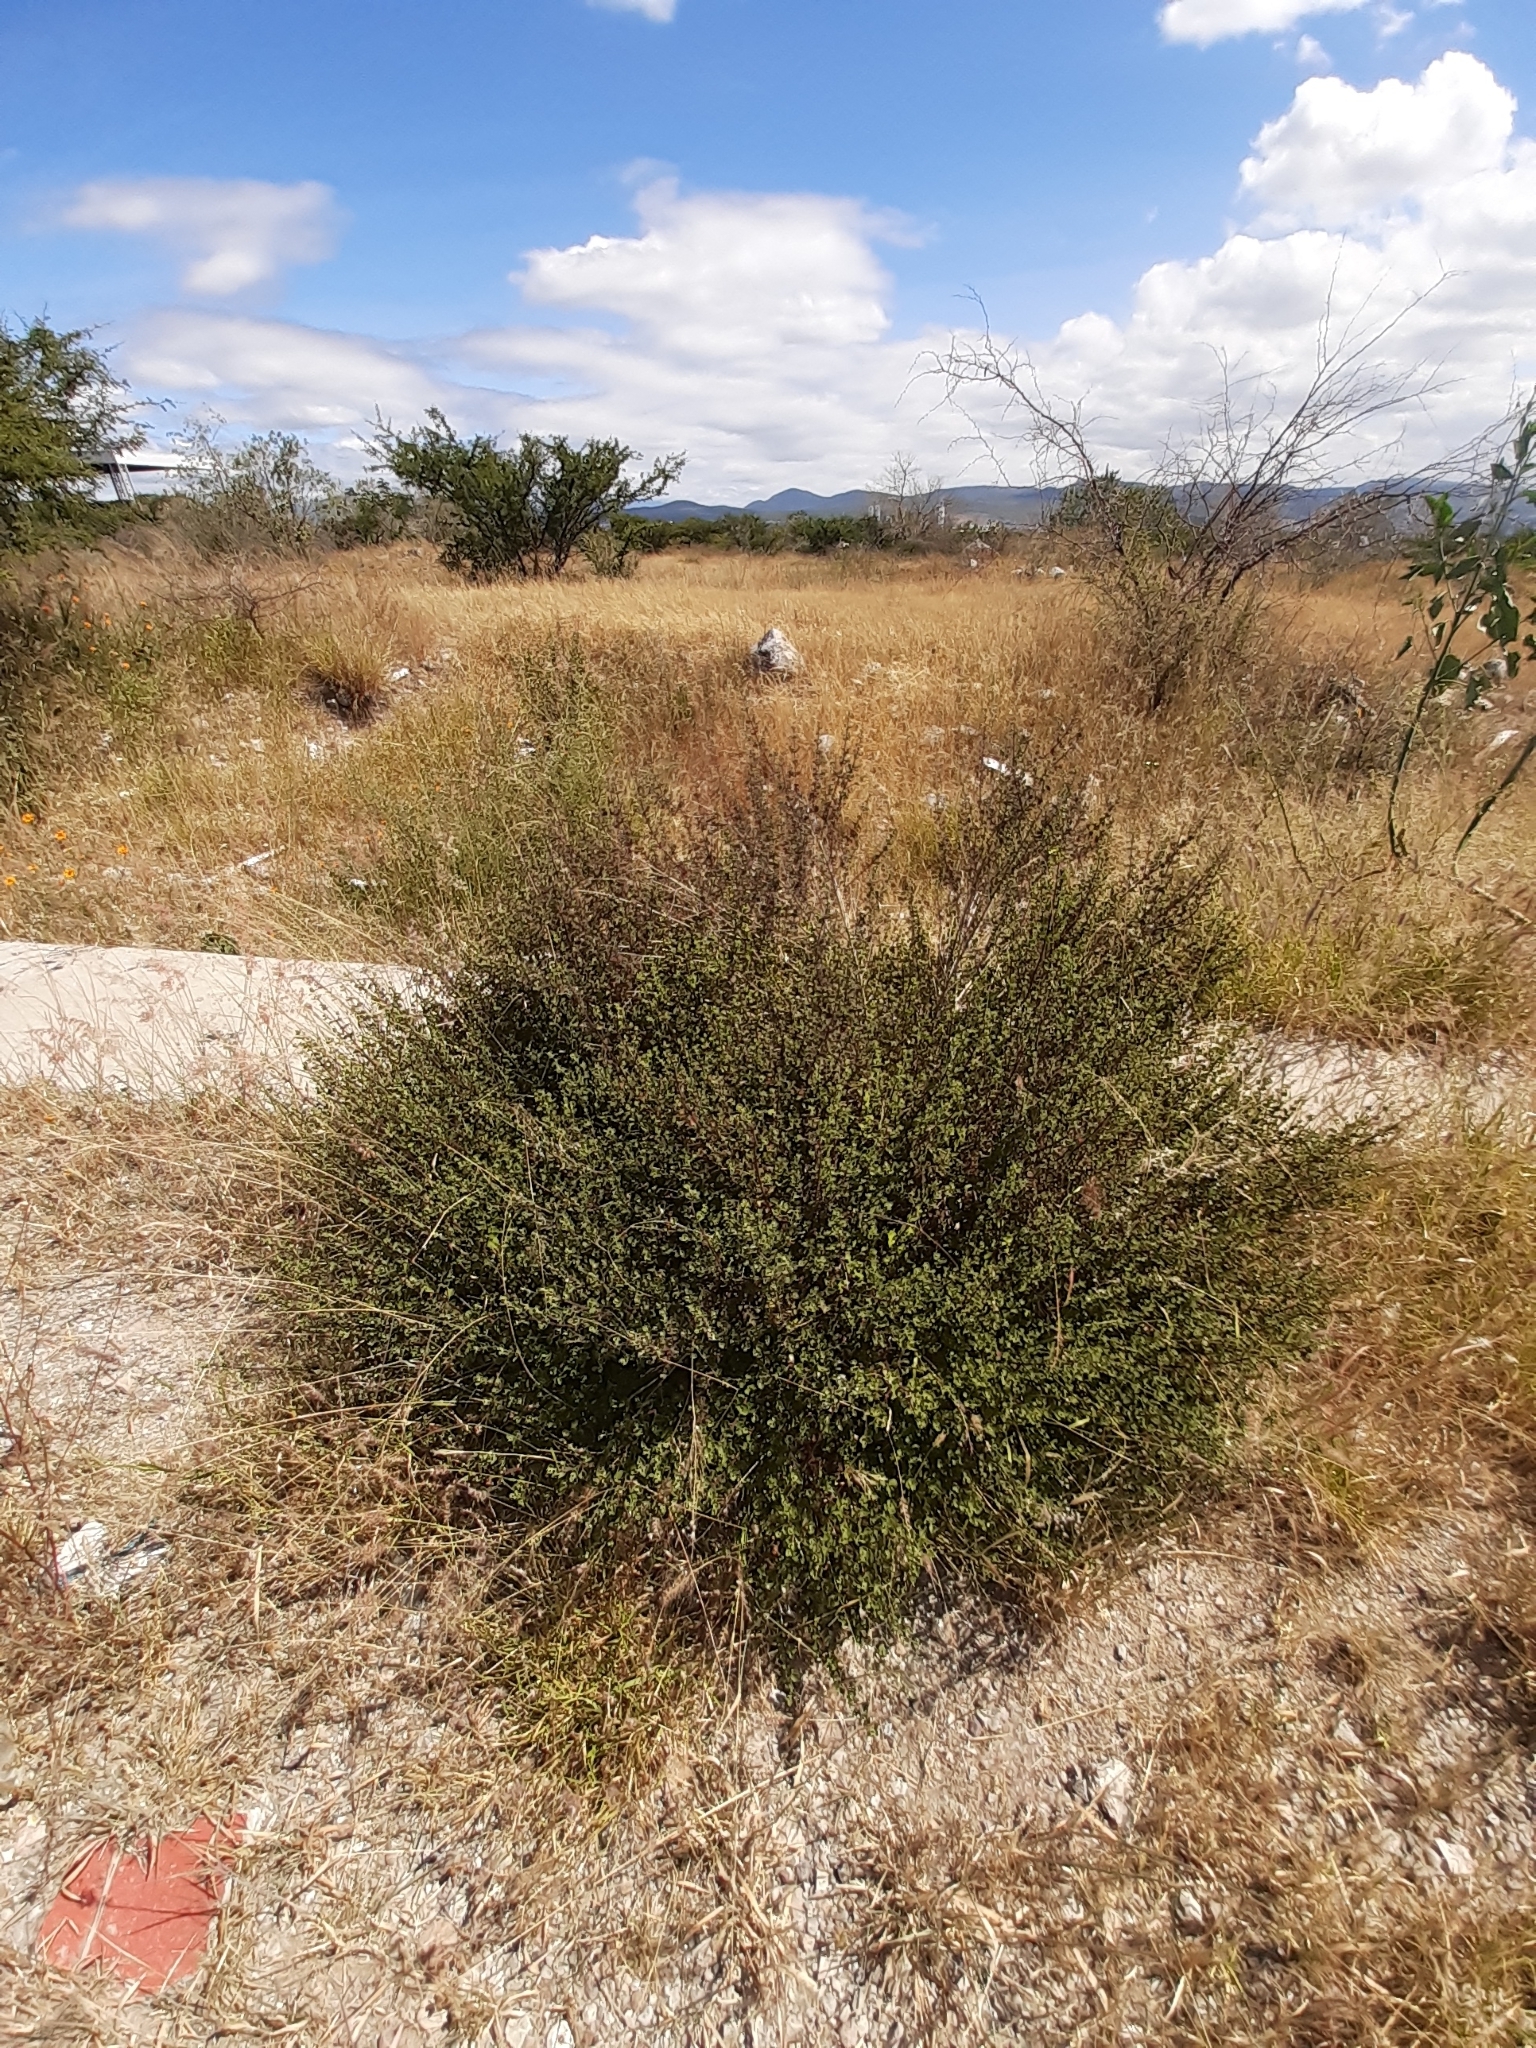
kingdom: Plantae
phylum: Tracheophyta
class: Magnoliopsida
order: Asterales
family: Asteraceae
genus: Brickellia
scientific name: Brickellia veronicifolia
